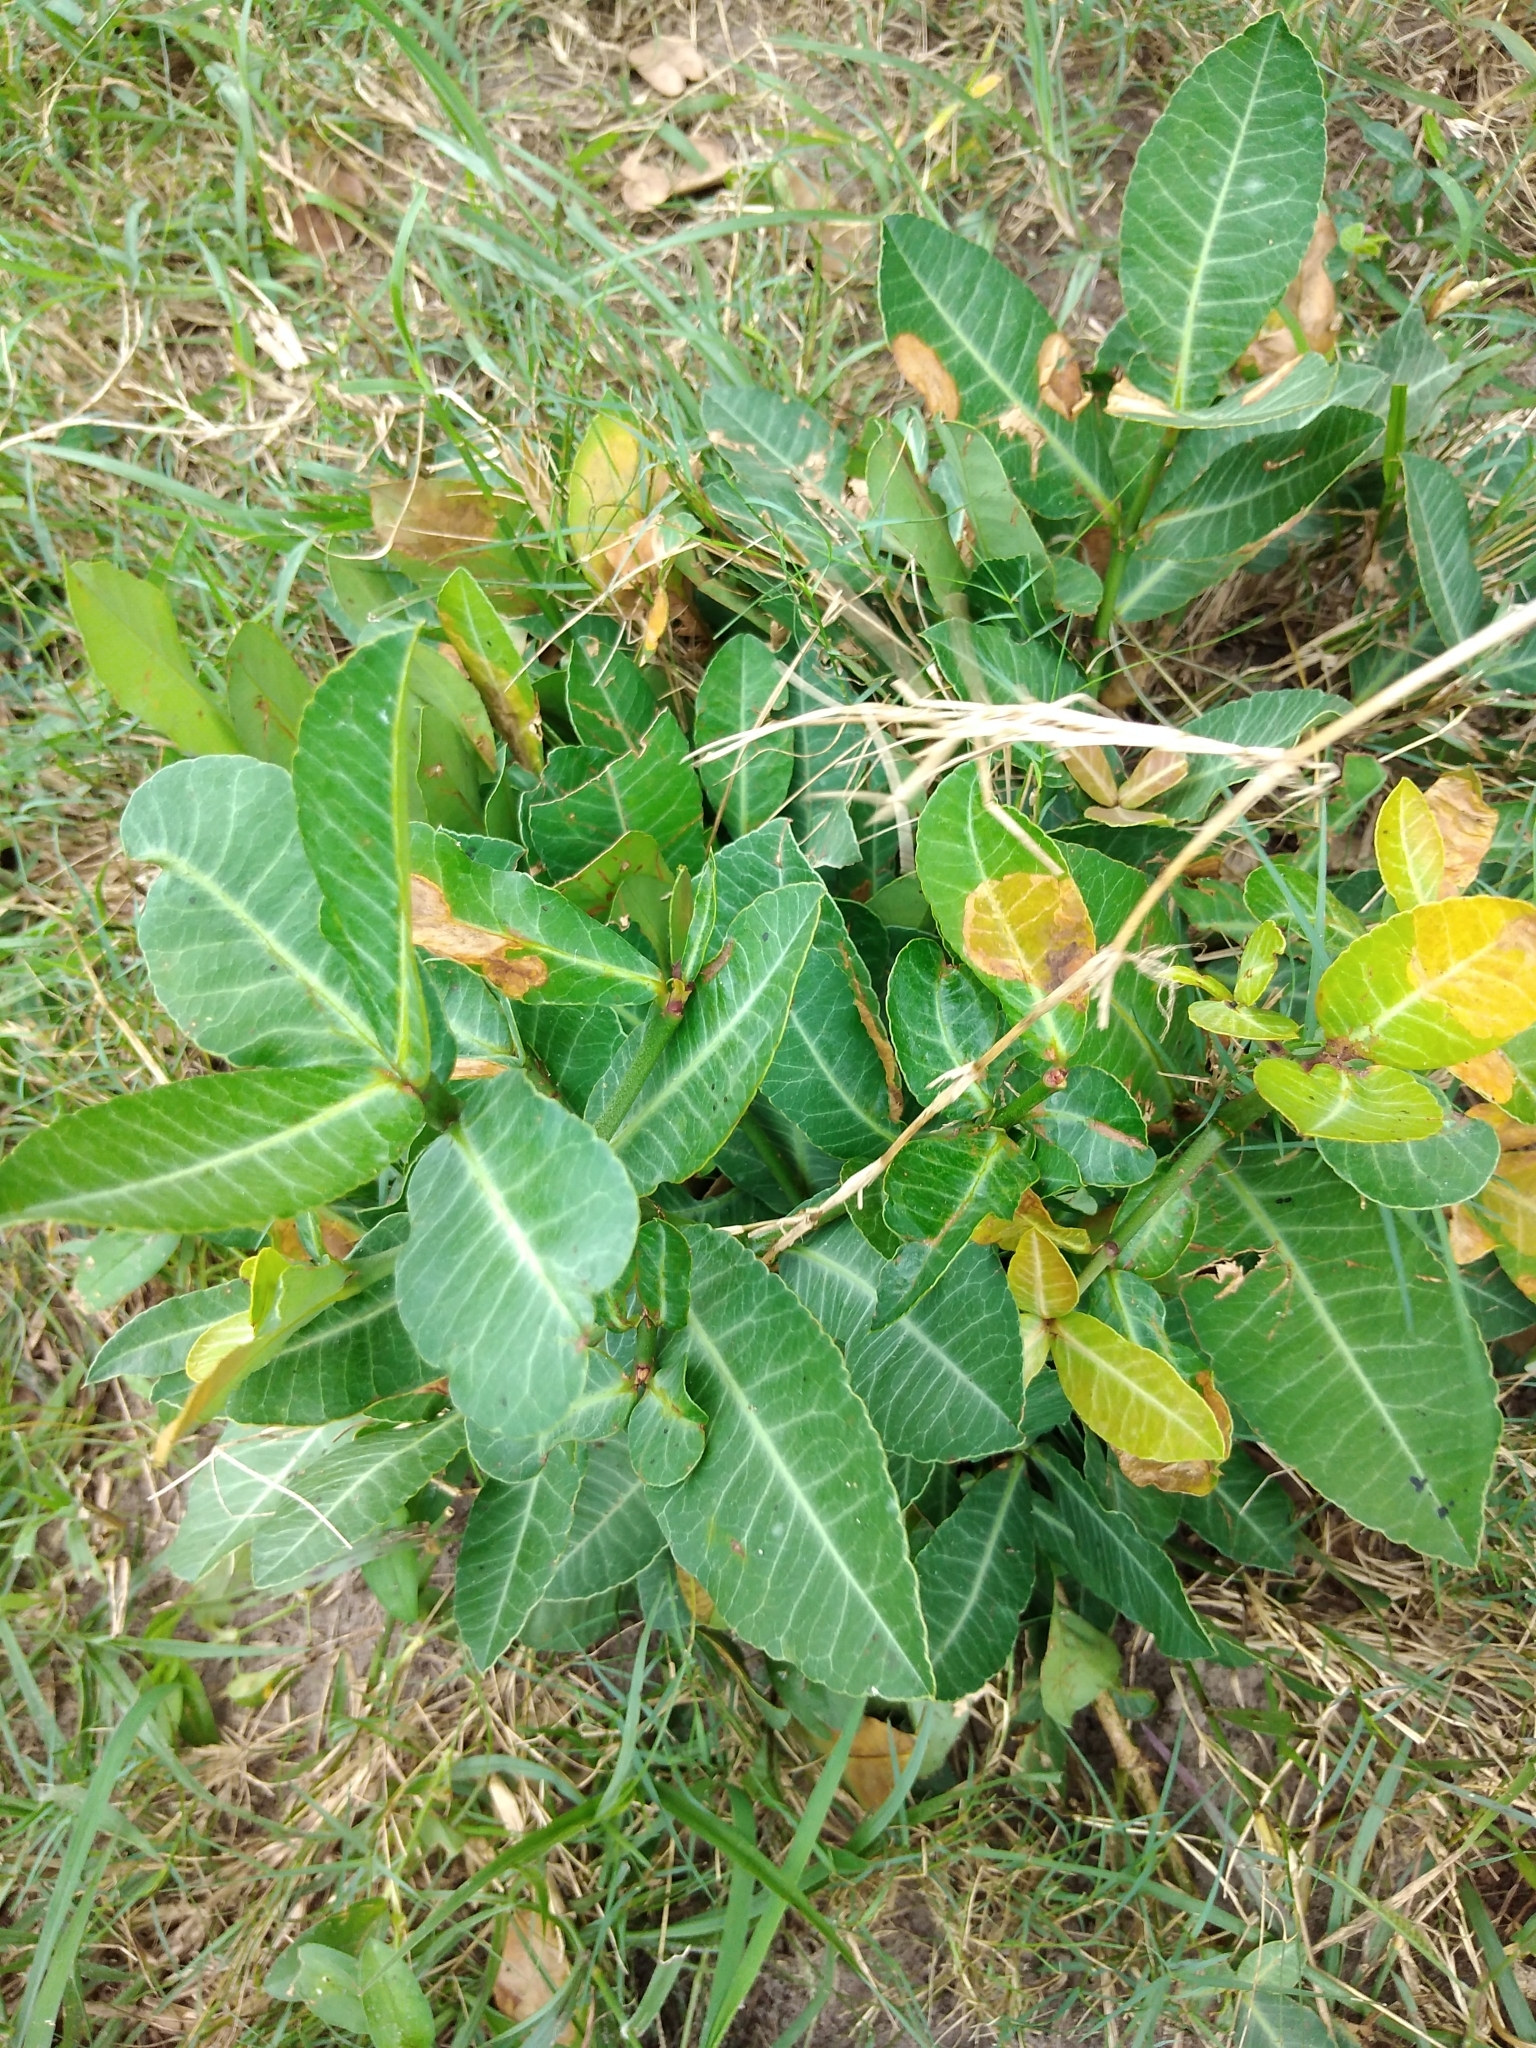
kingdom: Plantae
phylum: Tracheophyta
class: Magnoliopsida
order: Malpighiales
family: Clusiaceae
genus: Garcinia
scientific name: Garcinia livingstonei
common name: African mangosteen
